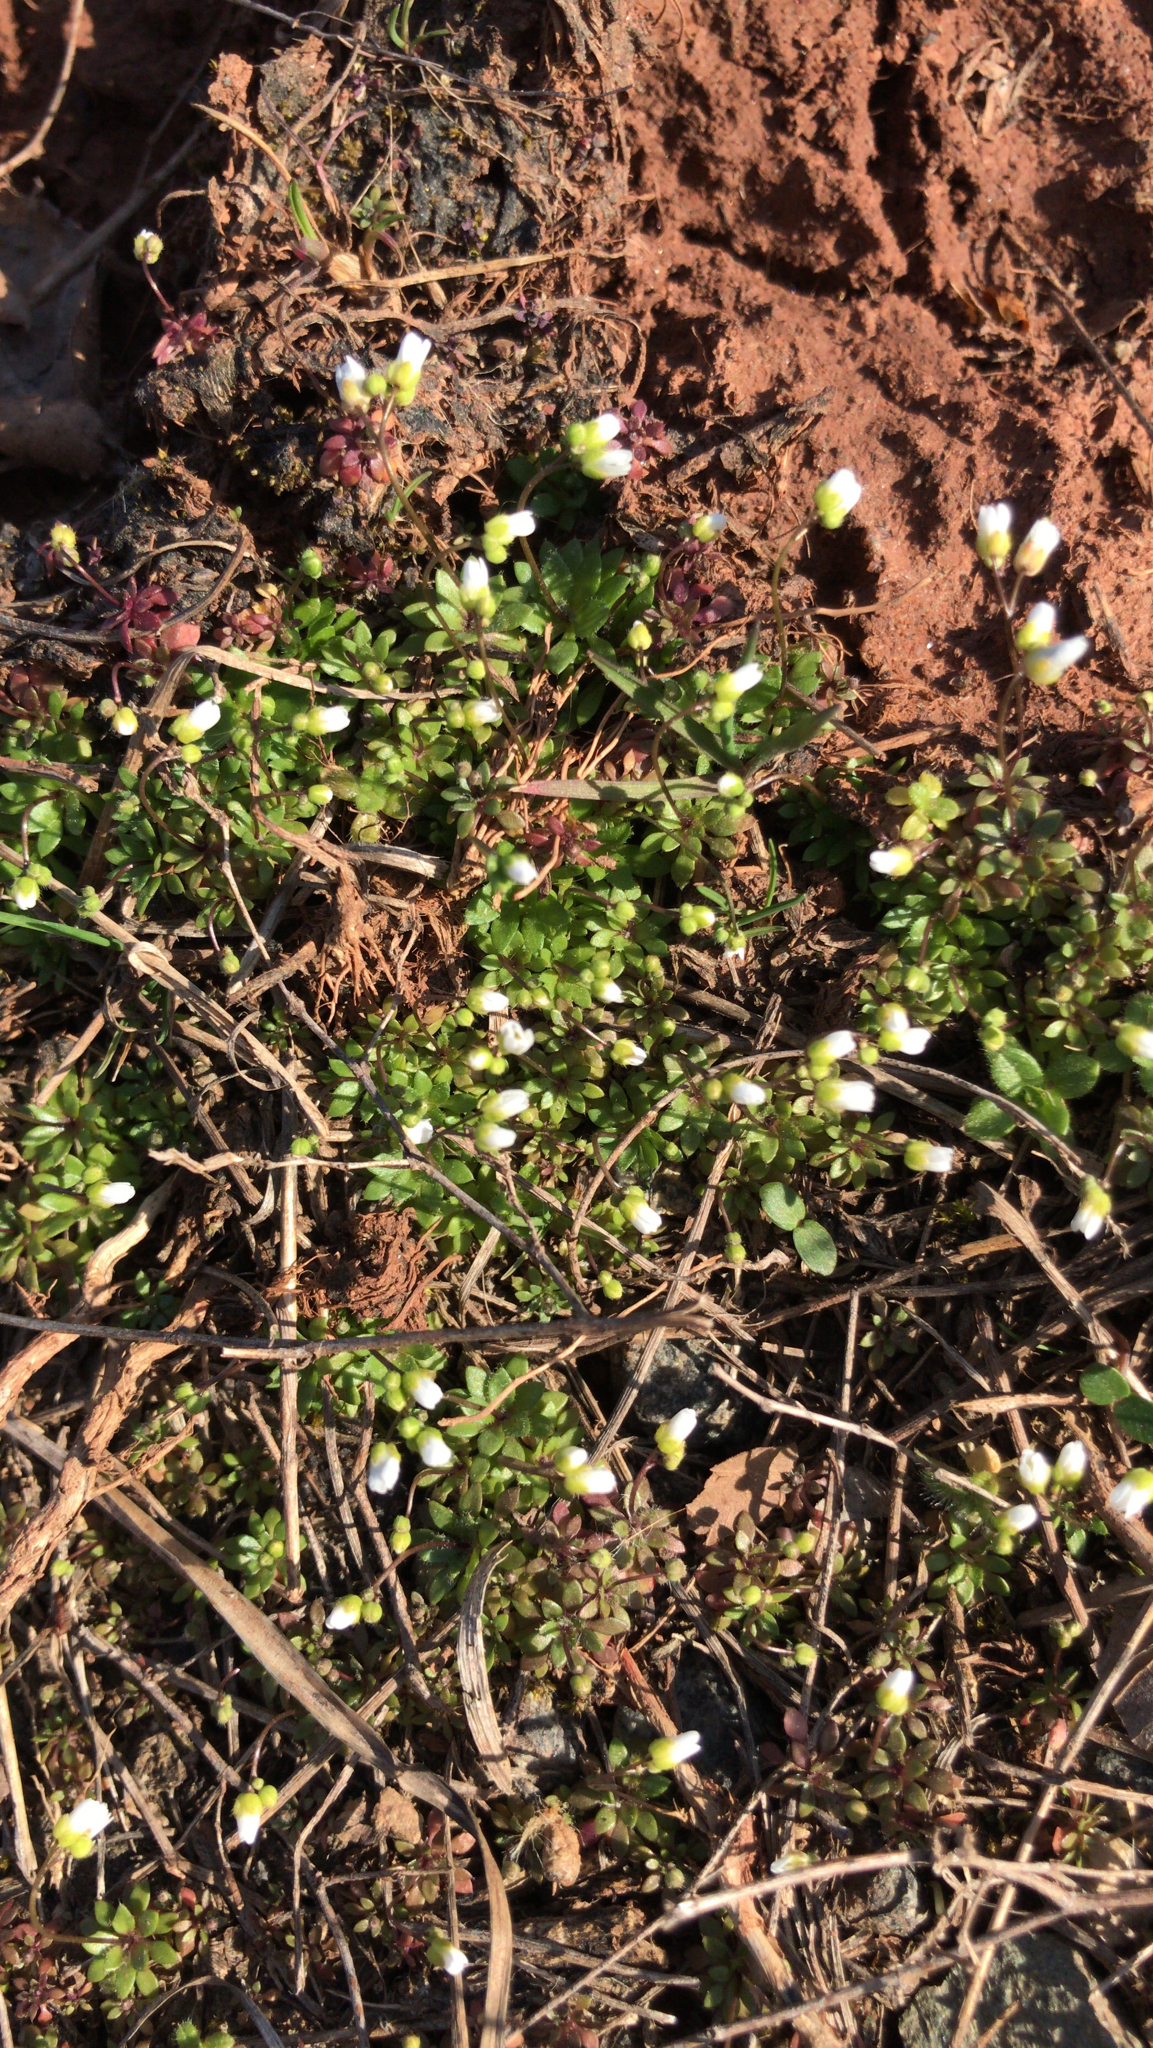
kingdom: Plantae
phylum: Tracheophyta
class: Magnoliopsida
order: Brassicales
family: Brassicaceae
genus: Draba
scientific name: Draba verna
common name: Spring draba
